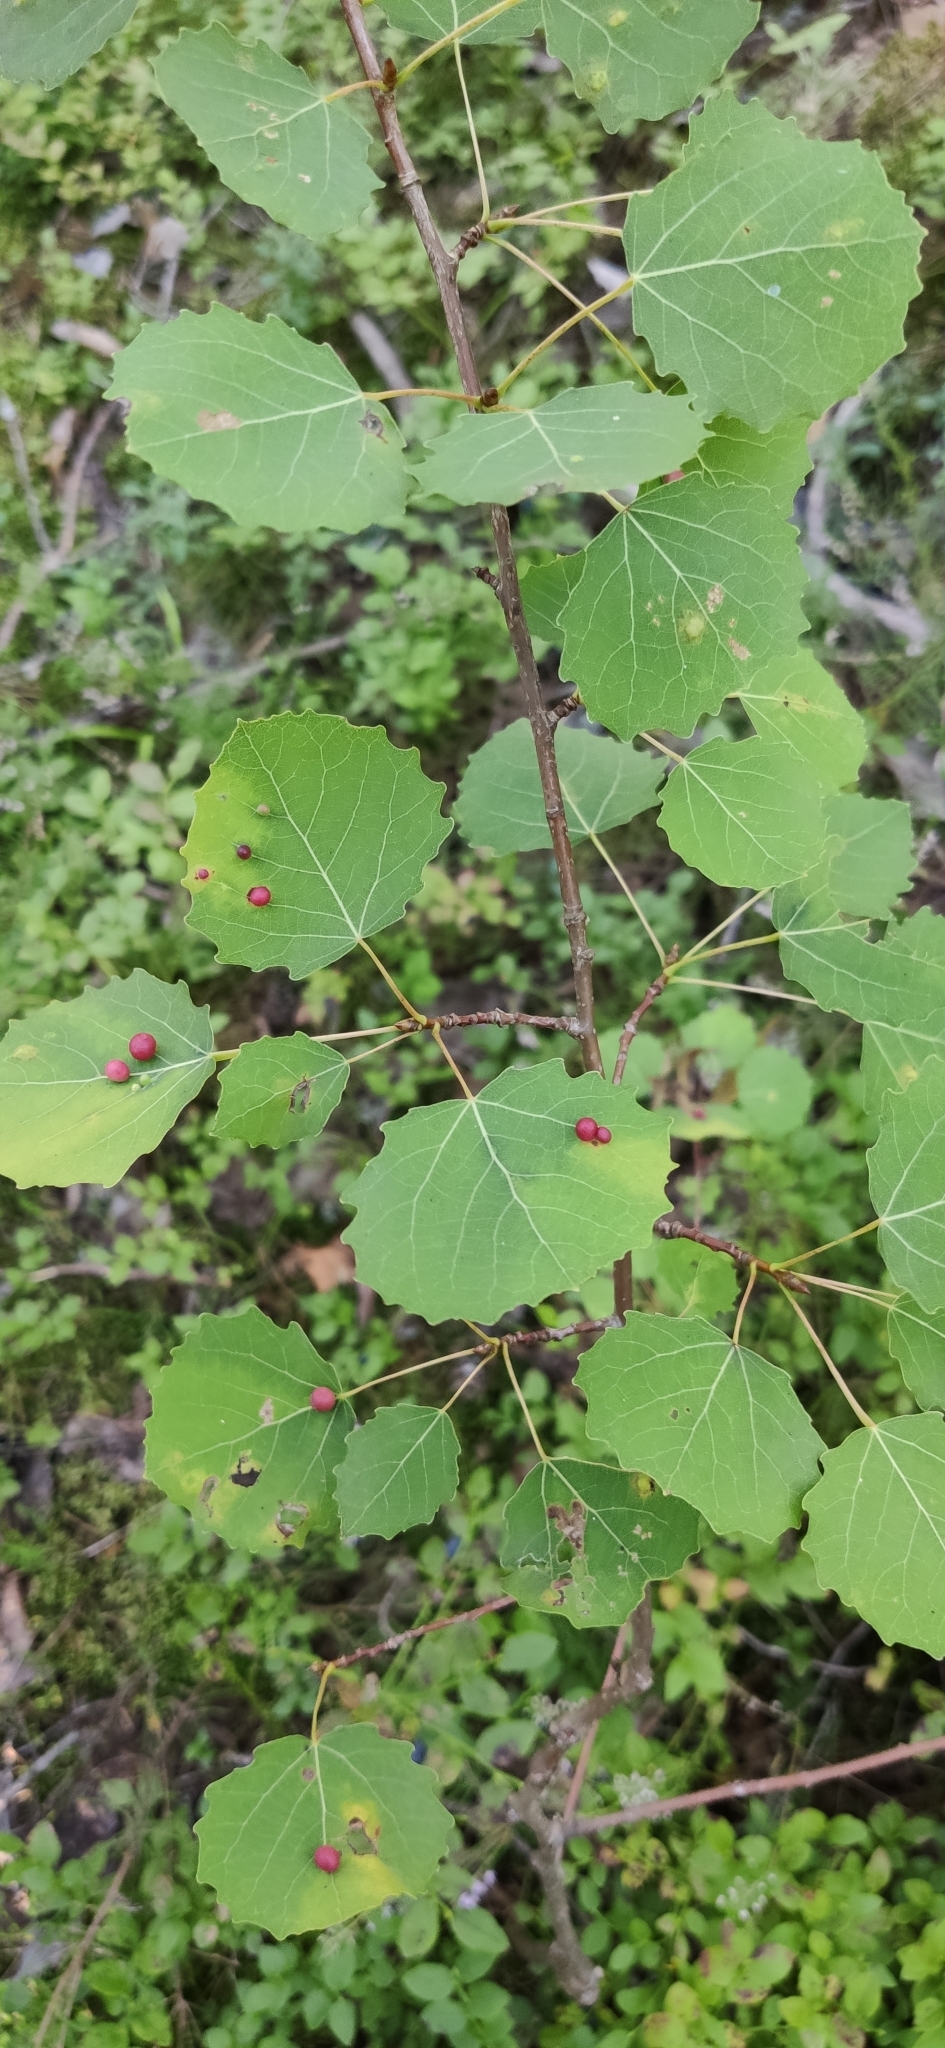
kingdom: Animalia
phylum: Arthropoda
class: Insecta
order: Diptera
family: Cecidomyiidae
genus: Harmandiola
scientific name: Harmandiola tremulae
